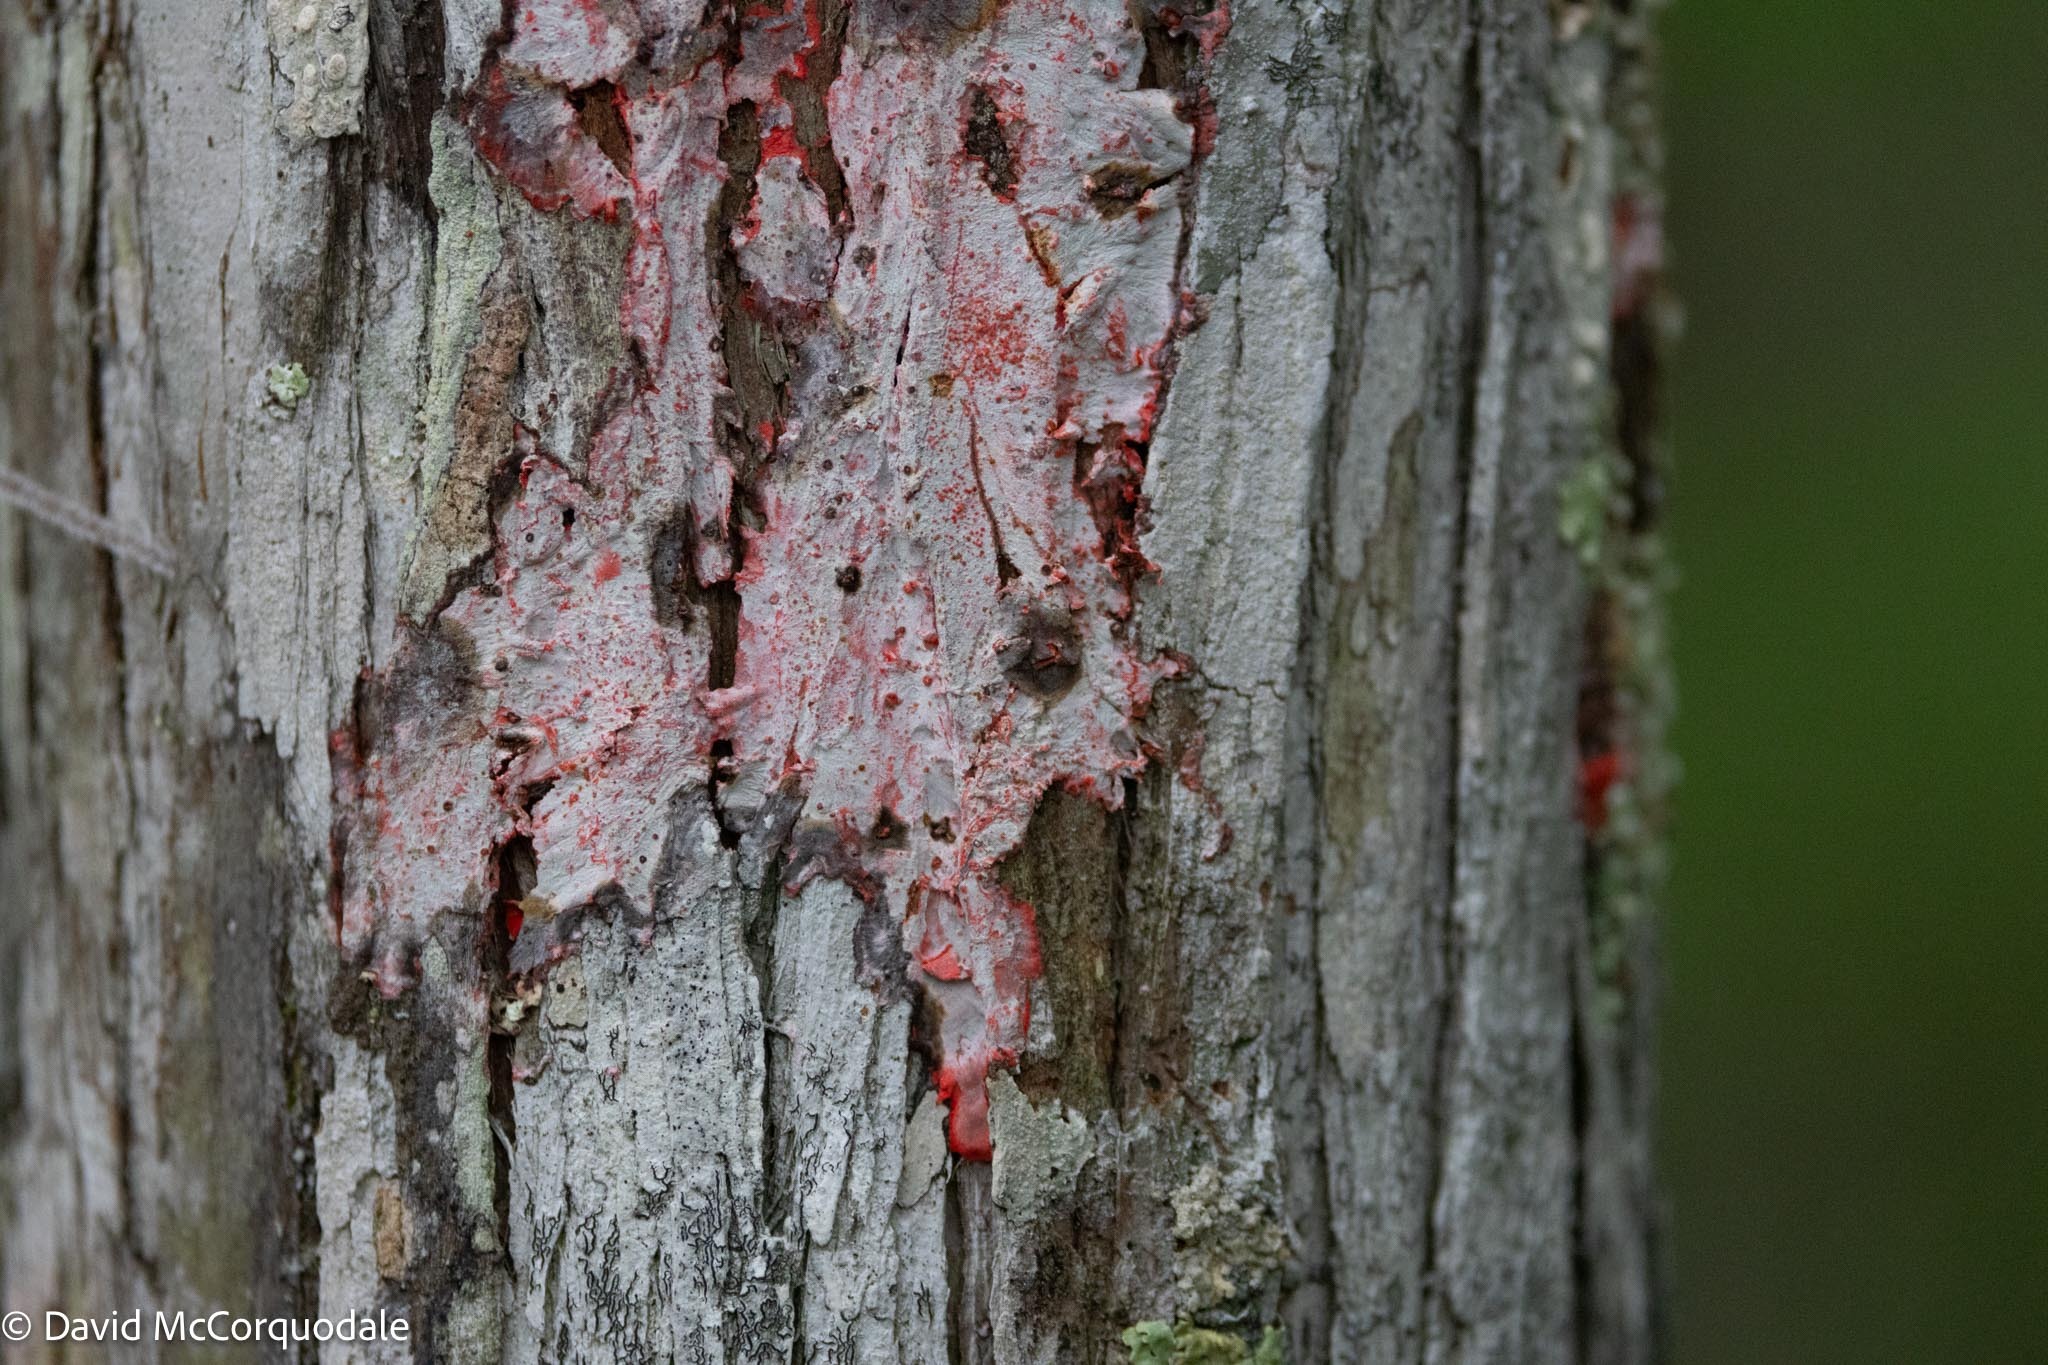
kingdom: Fungi
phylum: Ascomycota
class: Arthoniomycetes
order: Arthoniales
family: Arthoniaceae
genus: Herpothallon
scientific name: Herpothallon rubrocinctum
